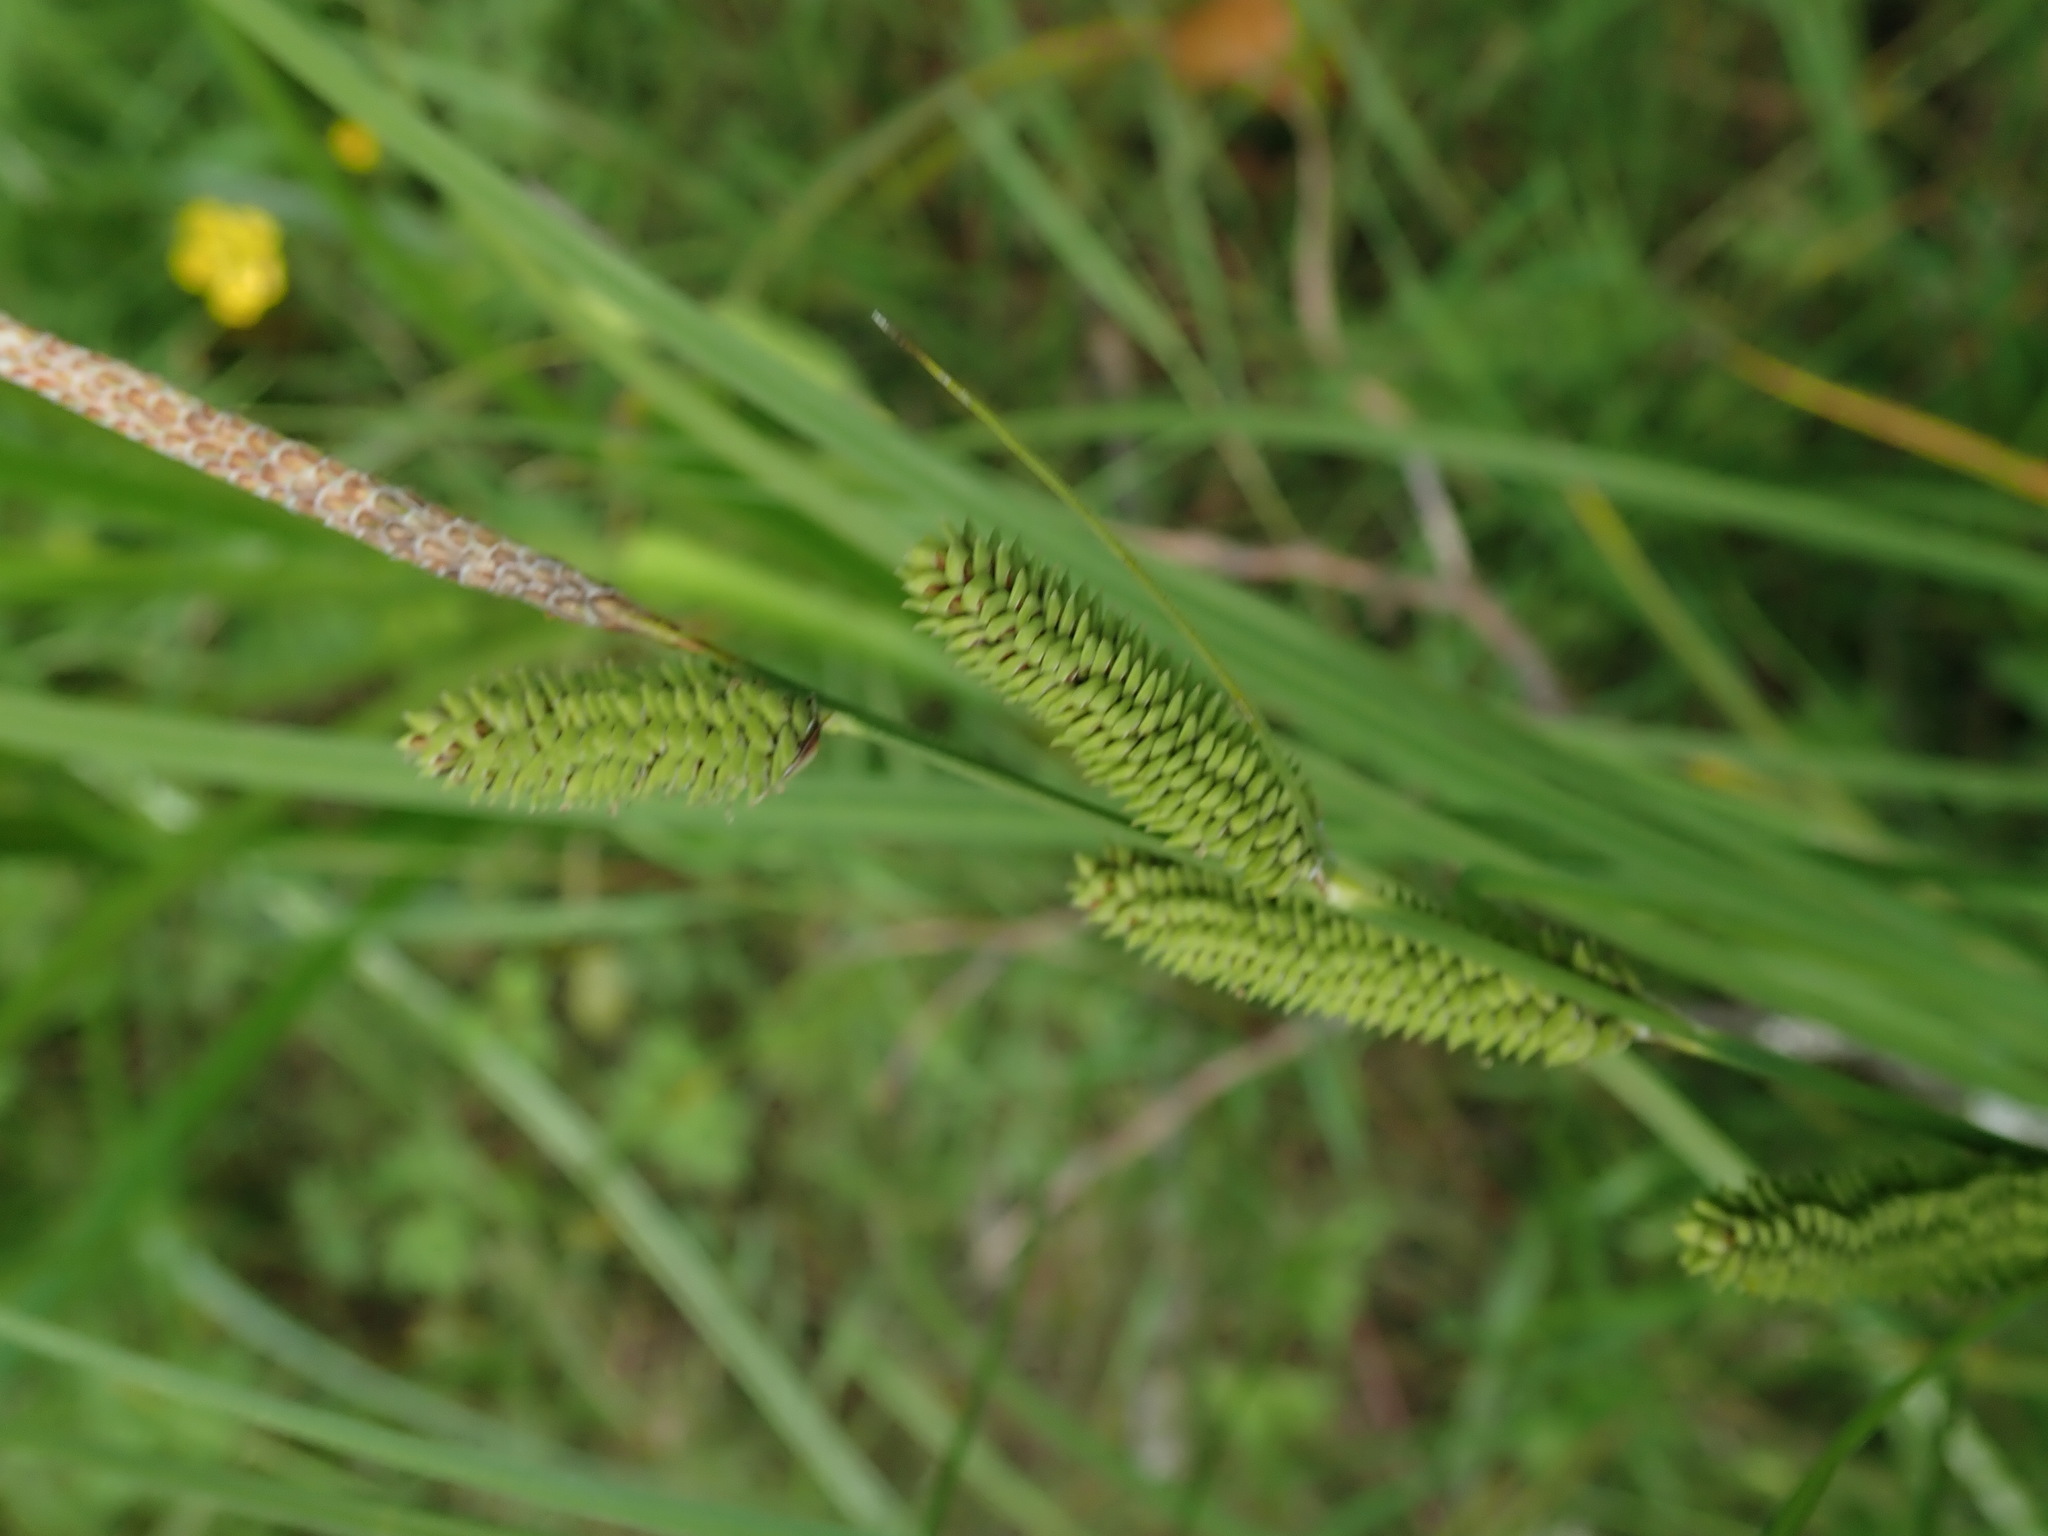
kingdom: Plantae
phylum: Tracheophyta
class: Liliopsida
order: Poales
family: Cyperaceae
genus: Carex
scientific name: Carex kelloggii
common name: Kellogg's sedge
